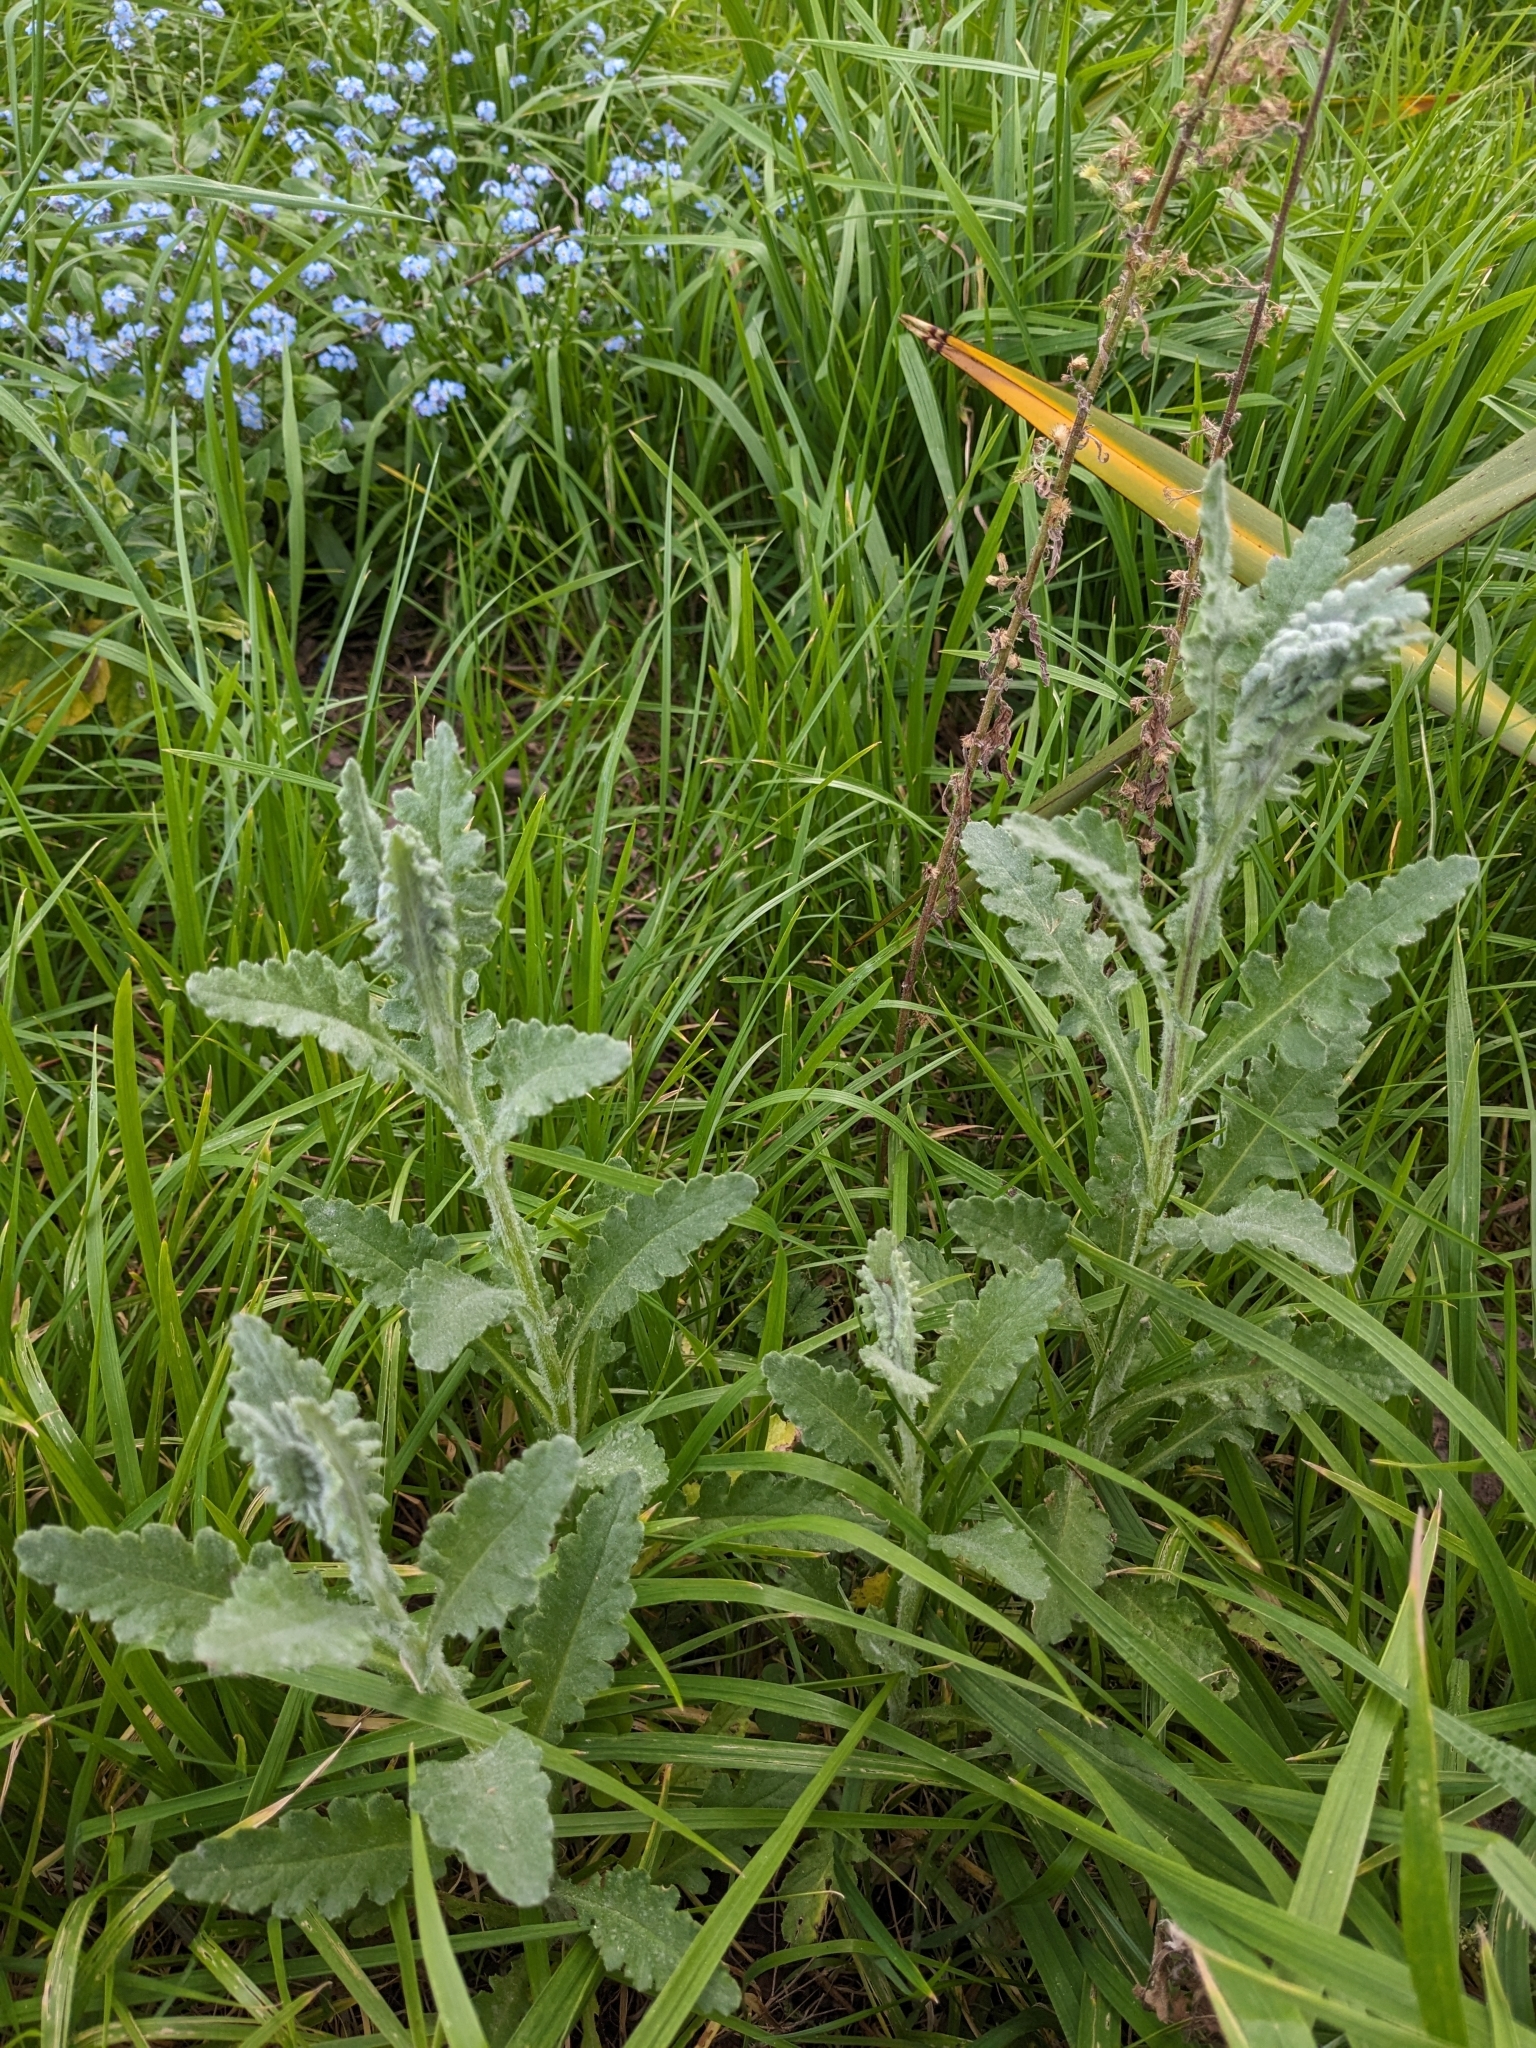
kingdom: Plantae
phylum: Tracheophyta
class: Magnoliopsida
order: Asterales
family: Asteraceae
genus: Senecio
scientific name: Senecio glomeratus
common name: Cutleaf burnweed
